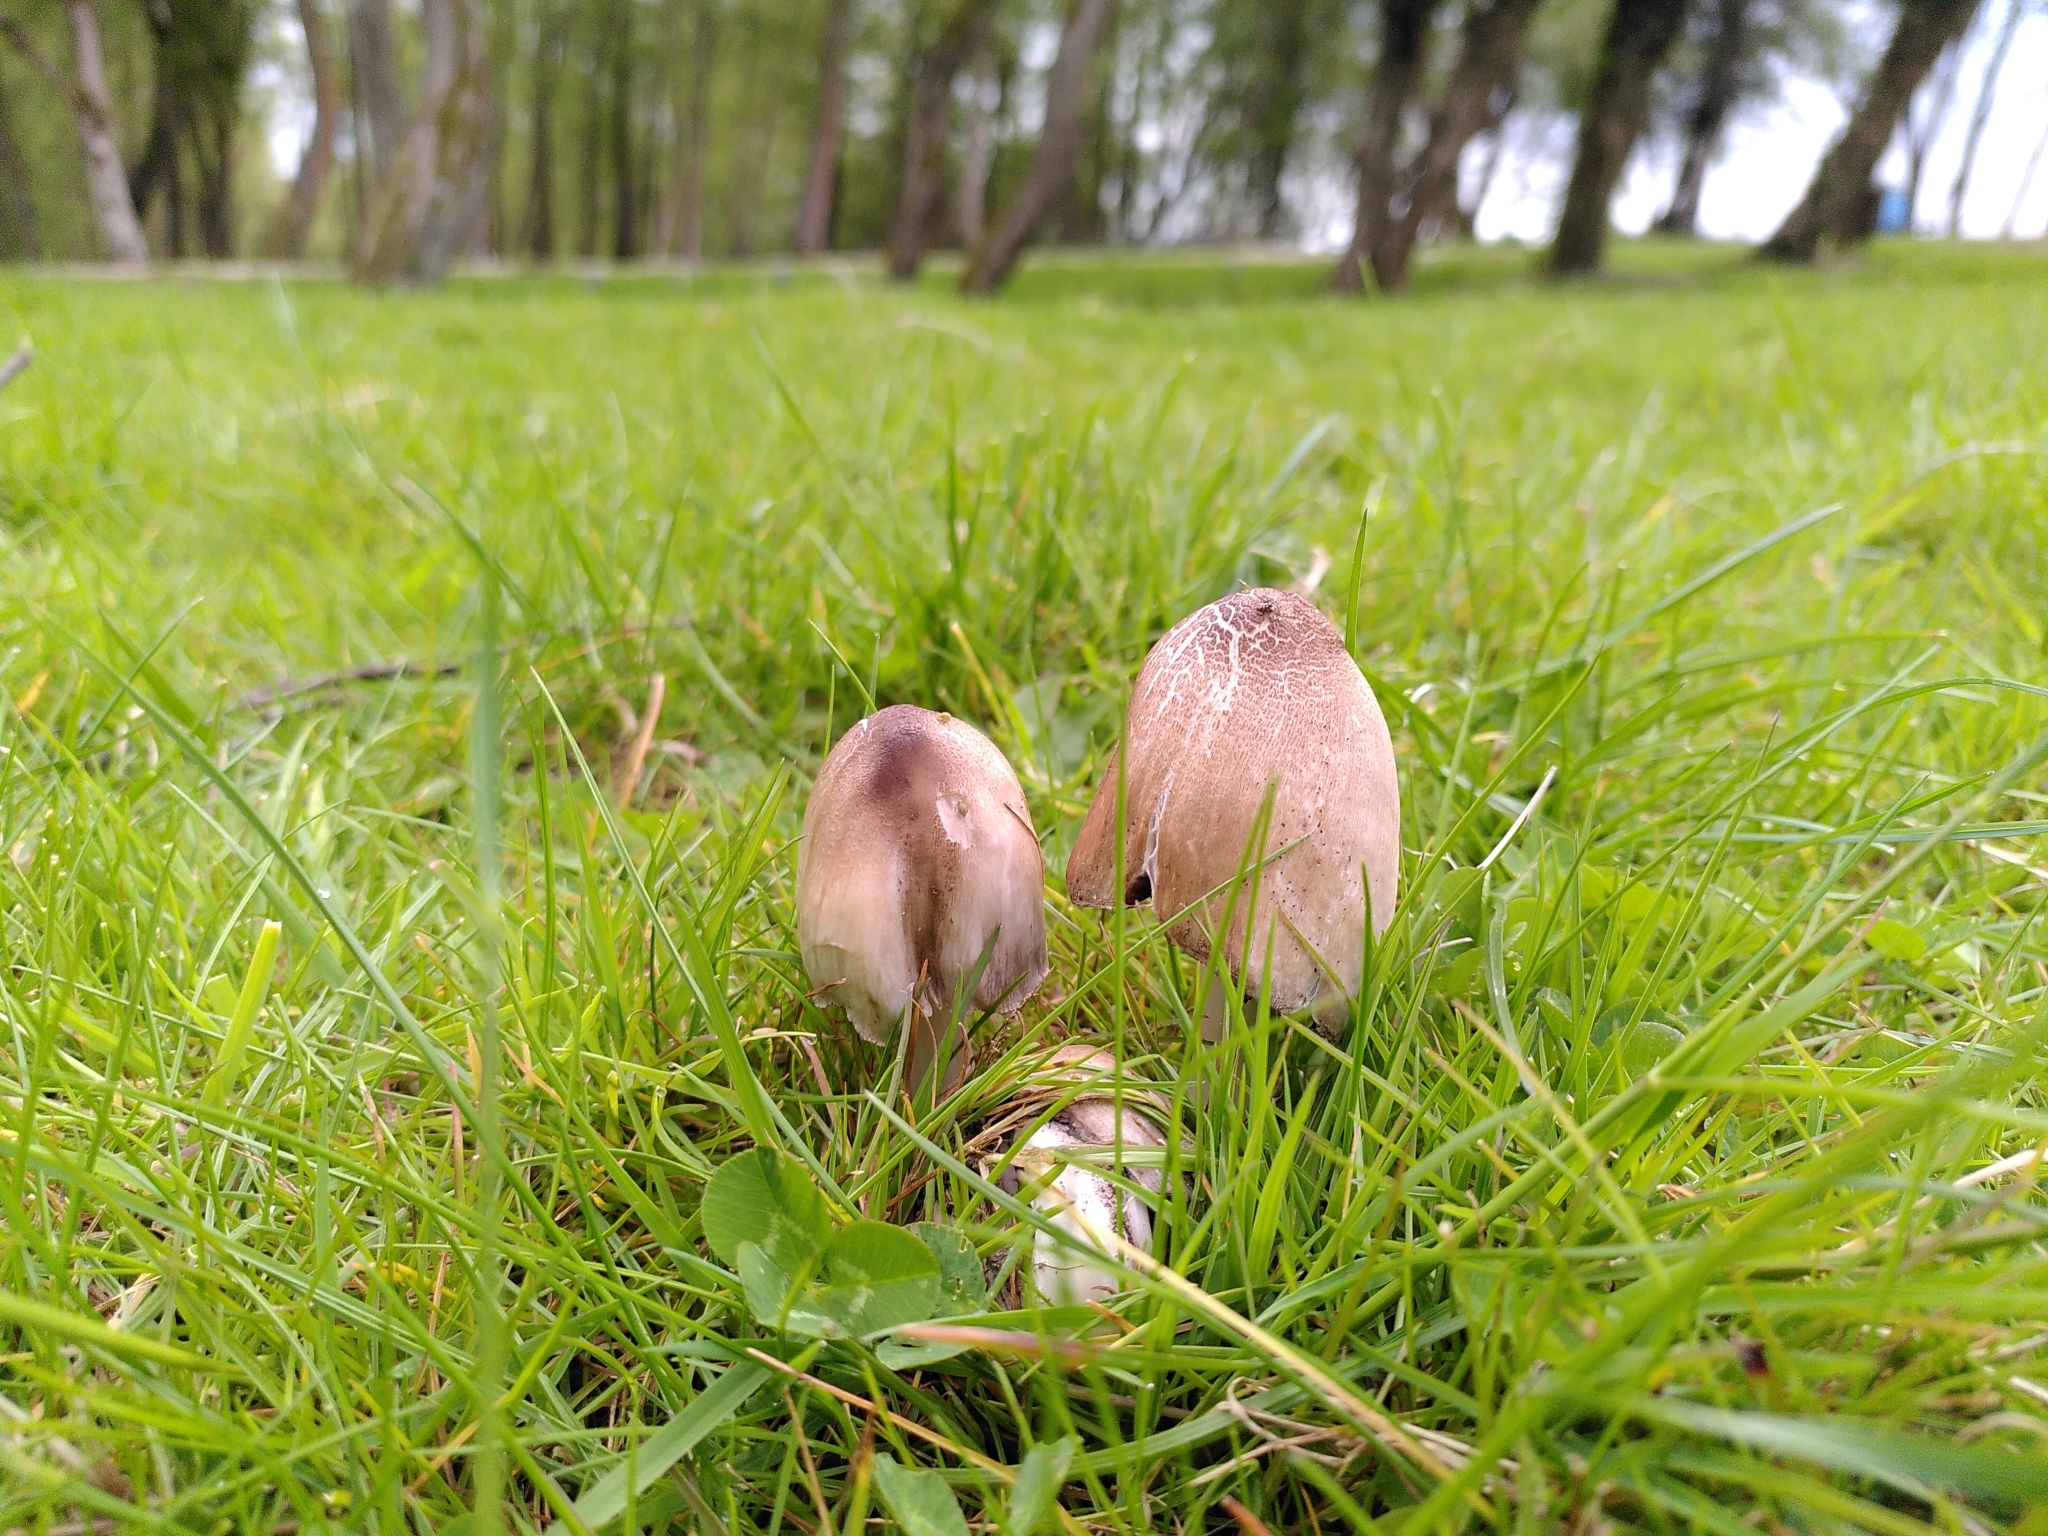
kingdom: Fungi
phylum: Basidiomycota
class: Agaricomycetes
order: Agaricales
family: Psathyrellaceae
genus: Coprinopsis
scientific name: Coprinopsis atramentaria
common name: Common ink-cap
